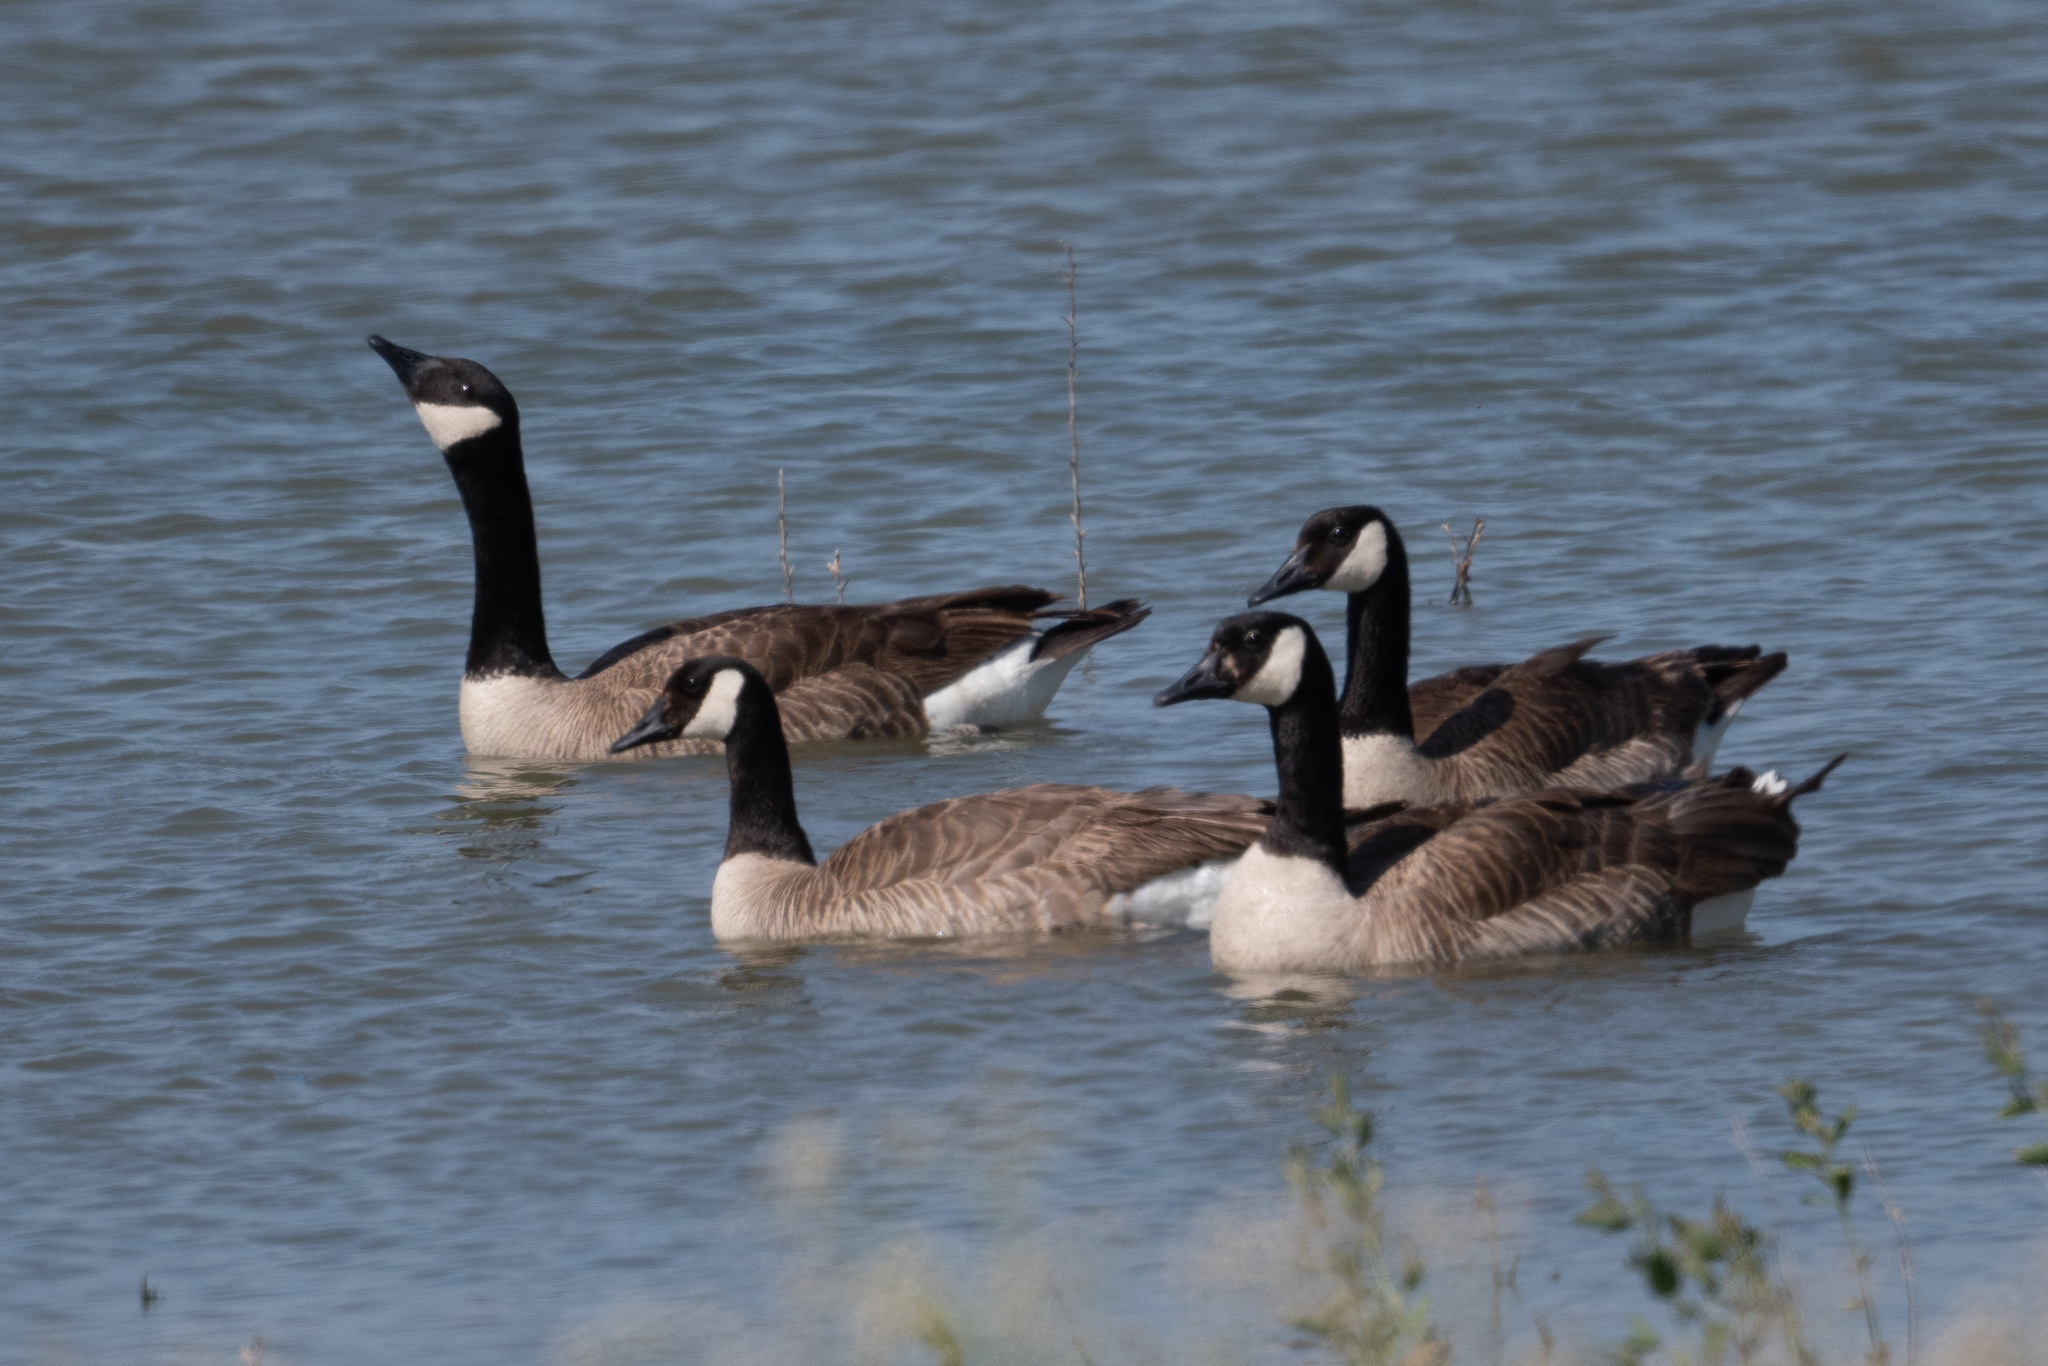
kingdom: Animalia
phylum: Chordata
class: Aves
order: Anseriformes
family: Anatidae
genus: Branta
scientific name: Branta canadensis
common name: Canada goose
